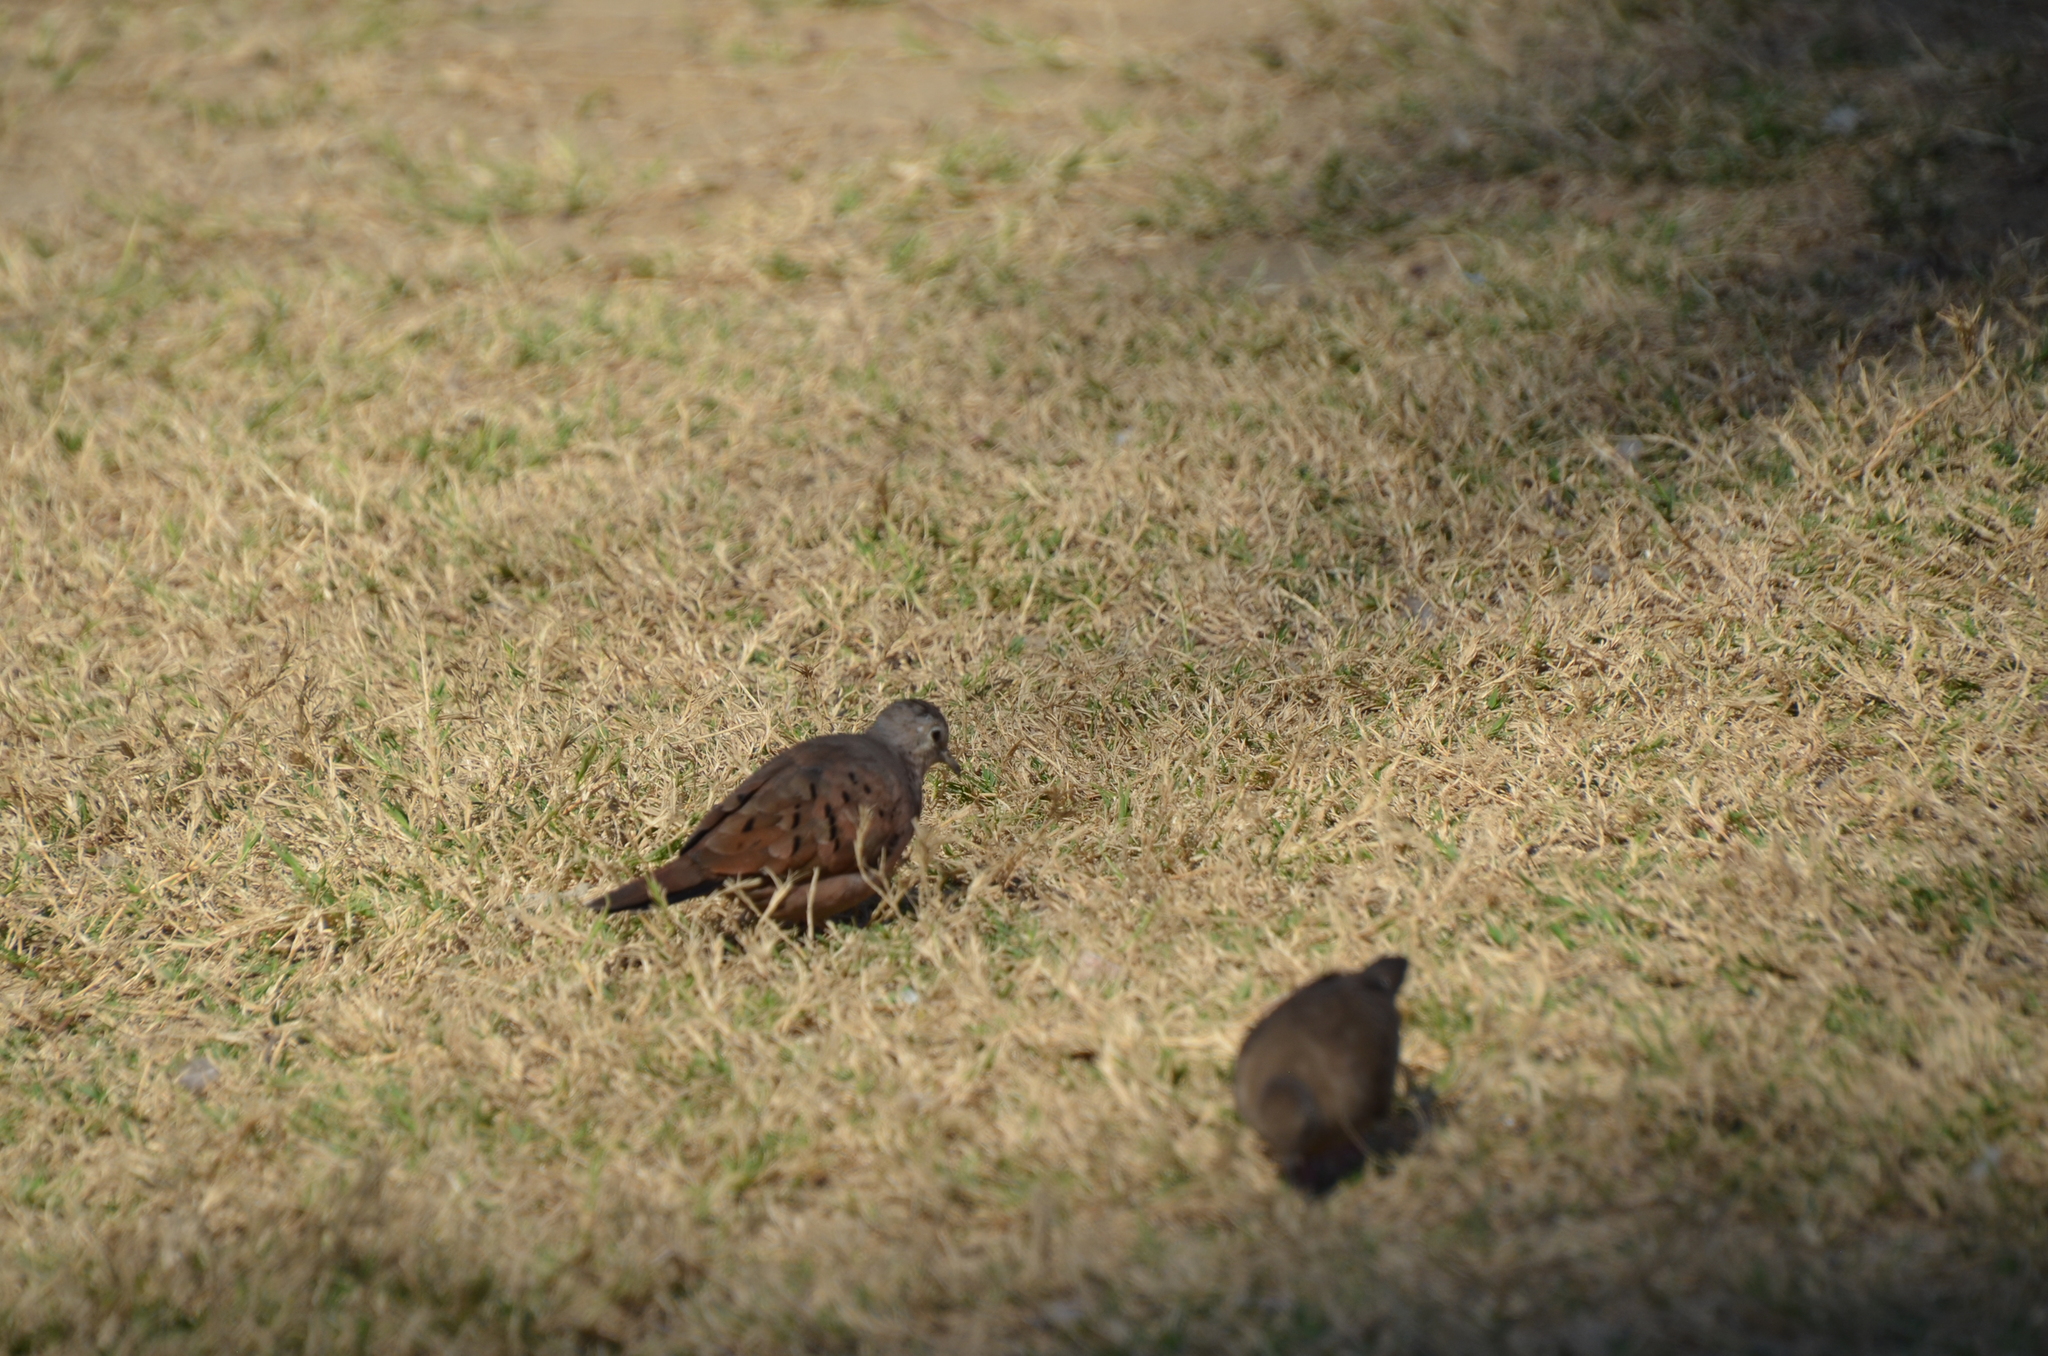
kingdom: Animalia
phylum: Chordata
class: Aves
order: Columbiformes
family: Columbidae
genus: Columbina
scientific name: Columbina talpacoti
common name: Ruddy ground dove
